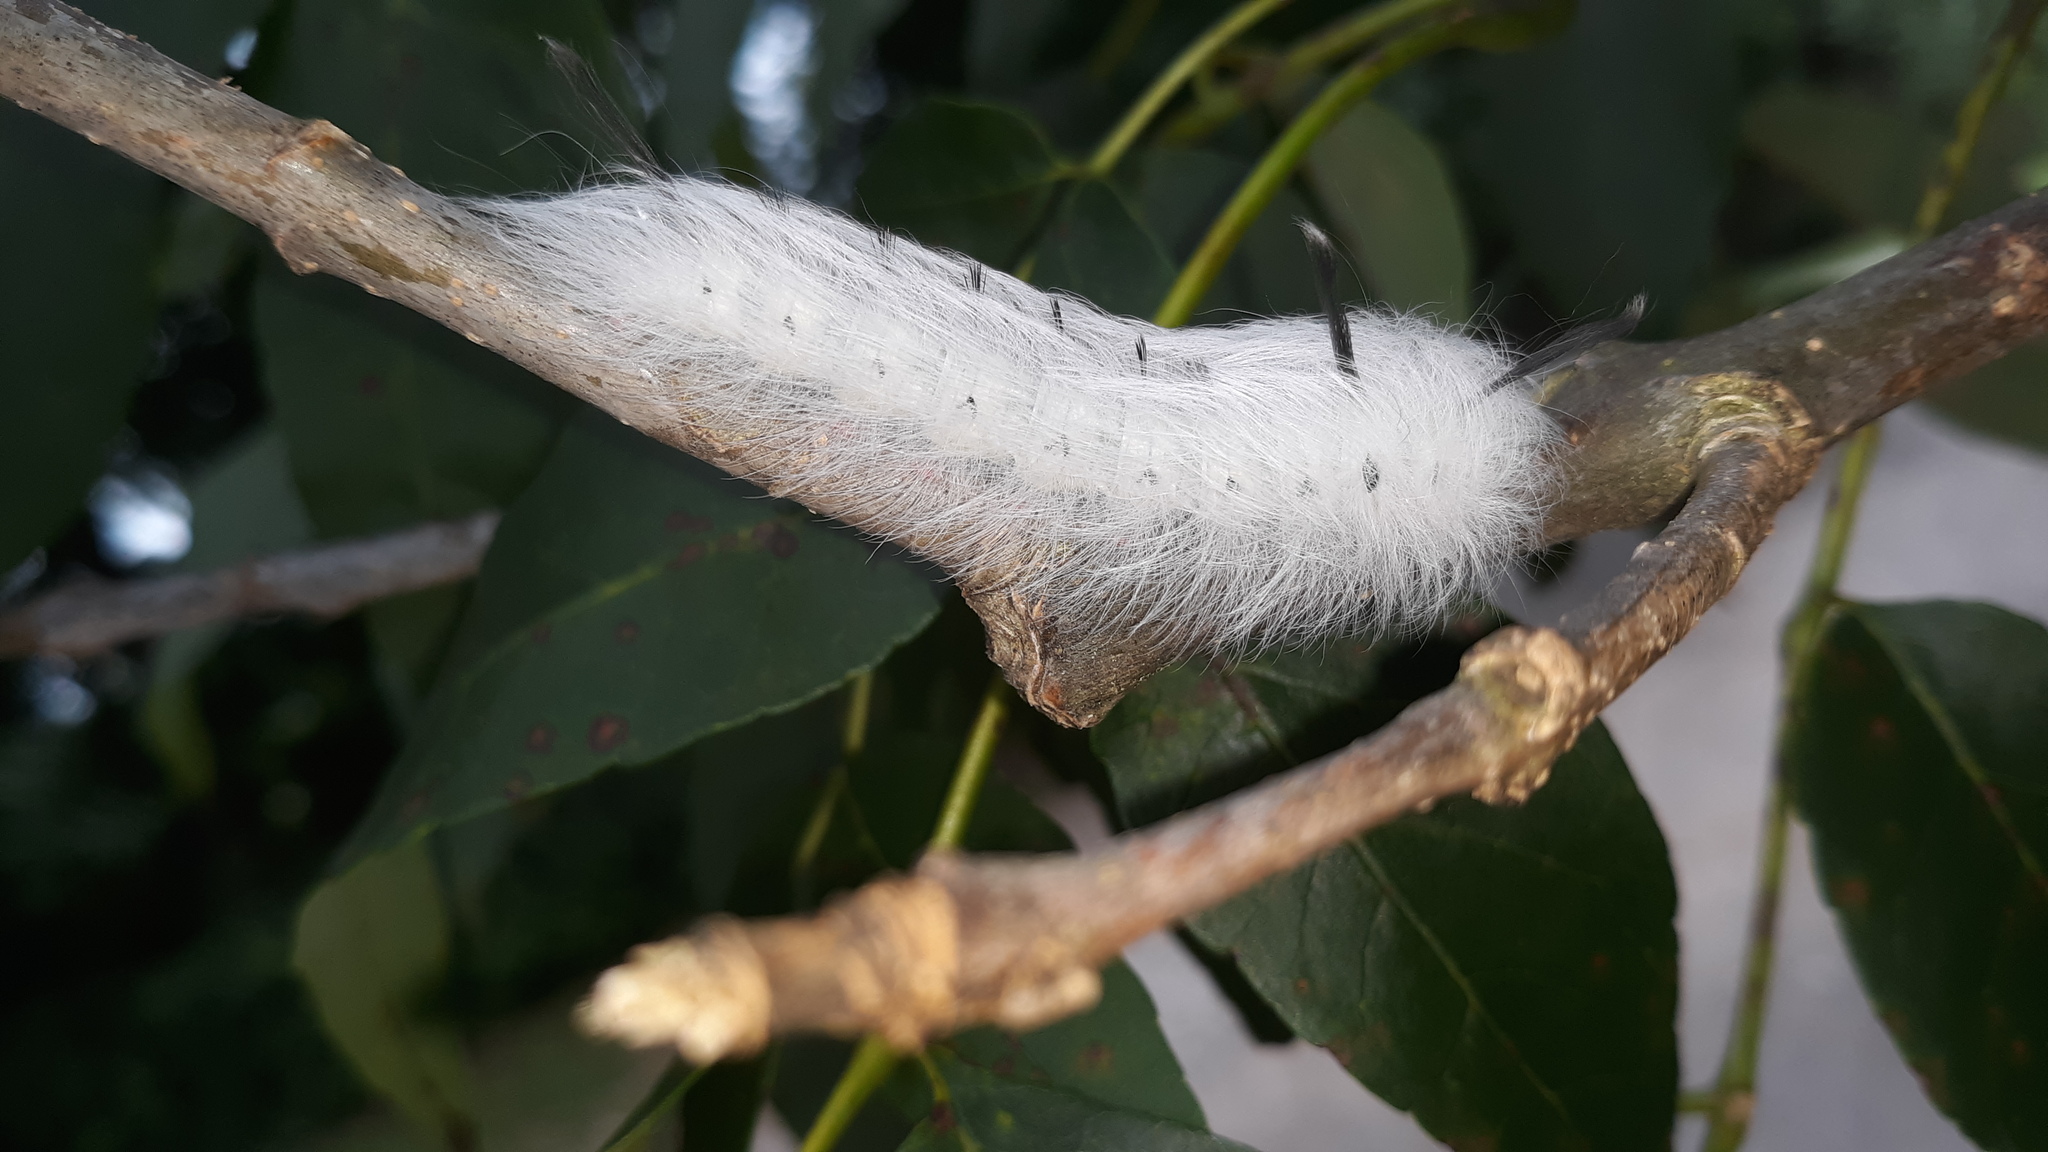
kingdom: Animalia
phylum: Arthropoda
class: Insecta
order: Lepidoptera
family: Apatelodidae
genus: Hygrochroa
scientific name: Hygrochroa Apatelodes torrefacta
